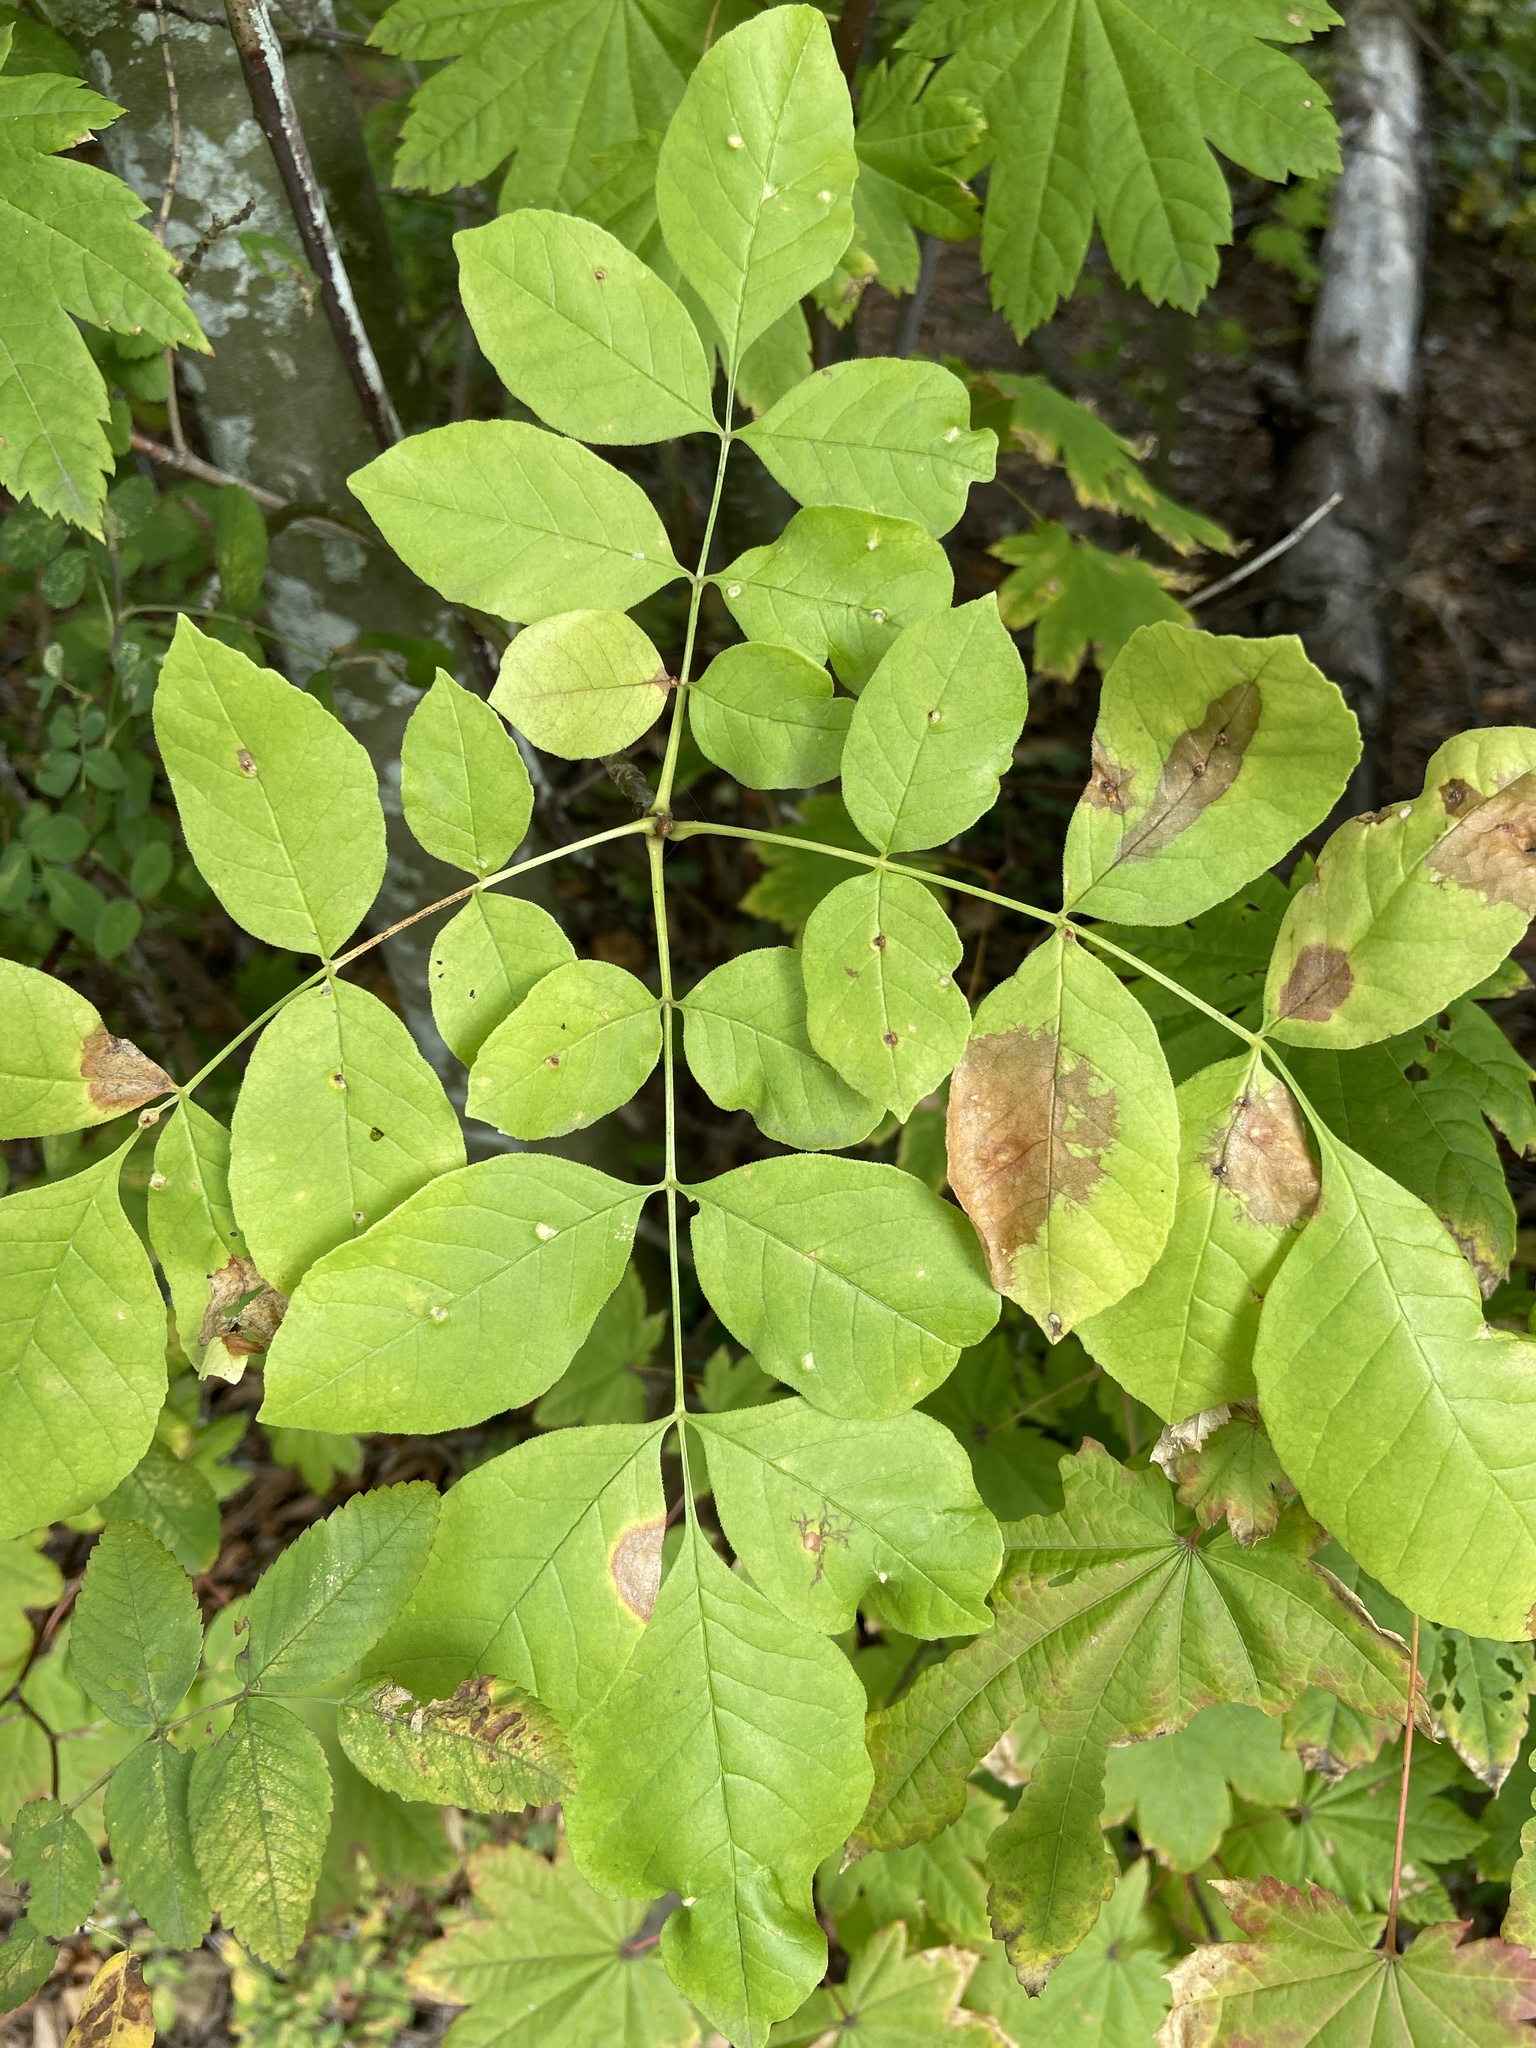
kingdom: Plantae
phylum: Tracheophyta
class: Magnoliopsida
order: Lamiales
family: Oleaceae
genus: Fraxinus
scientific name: Fraxinus latifolia
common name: Oregon ash
